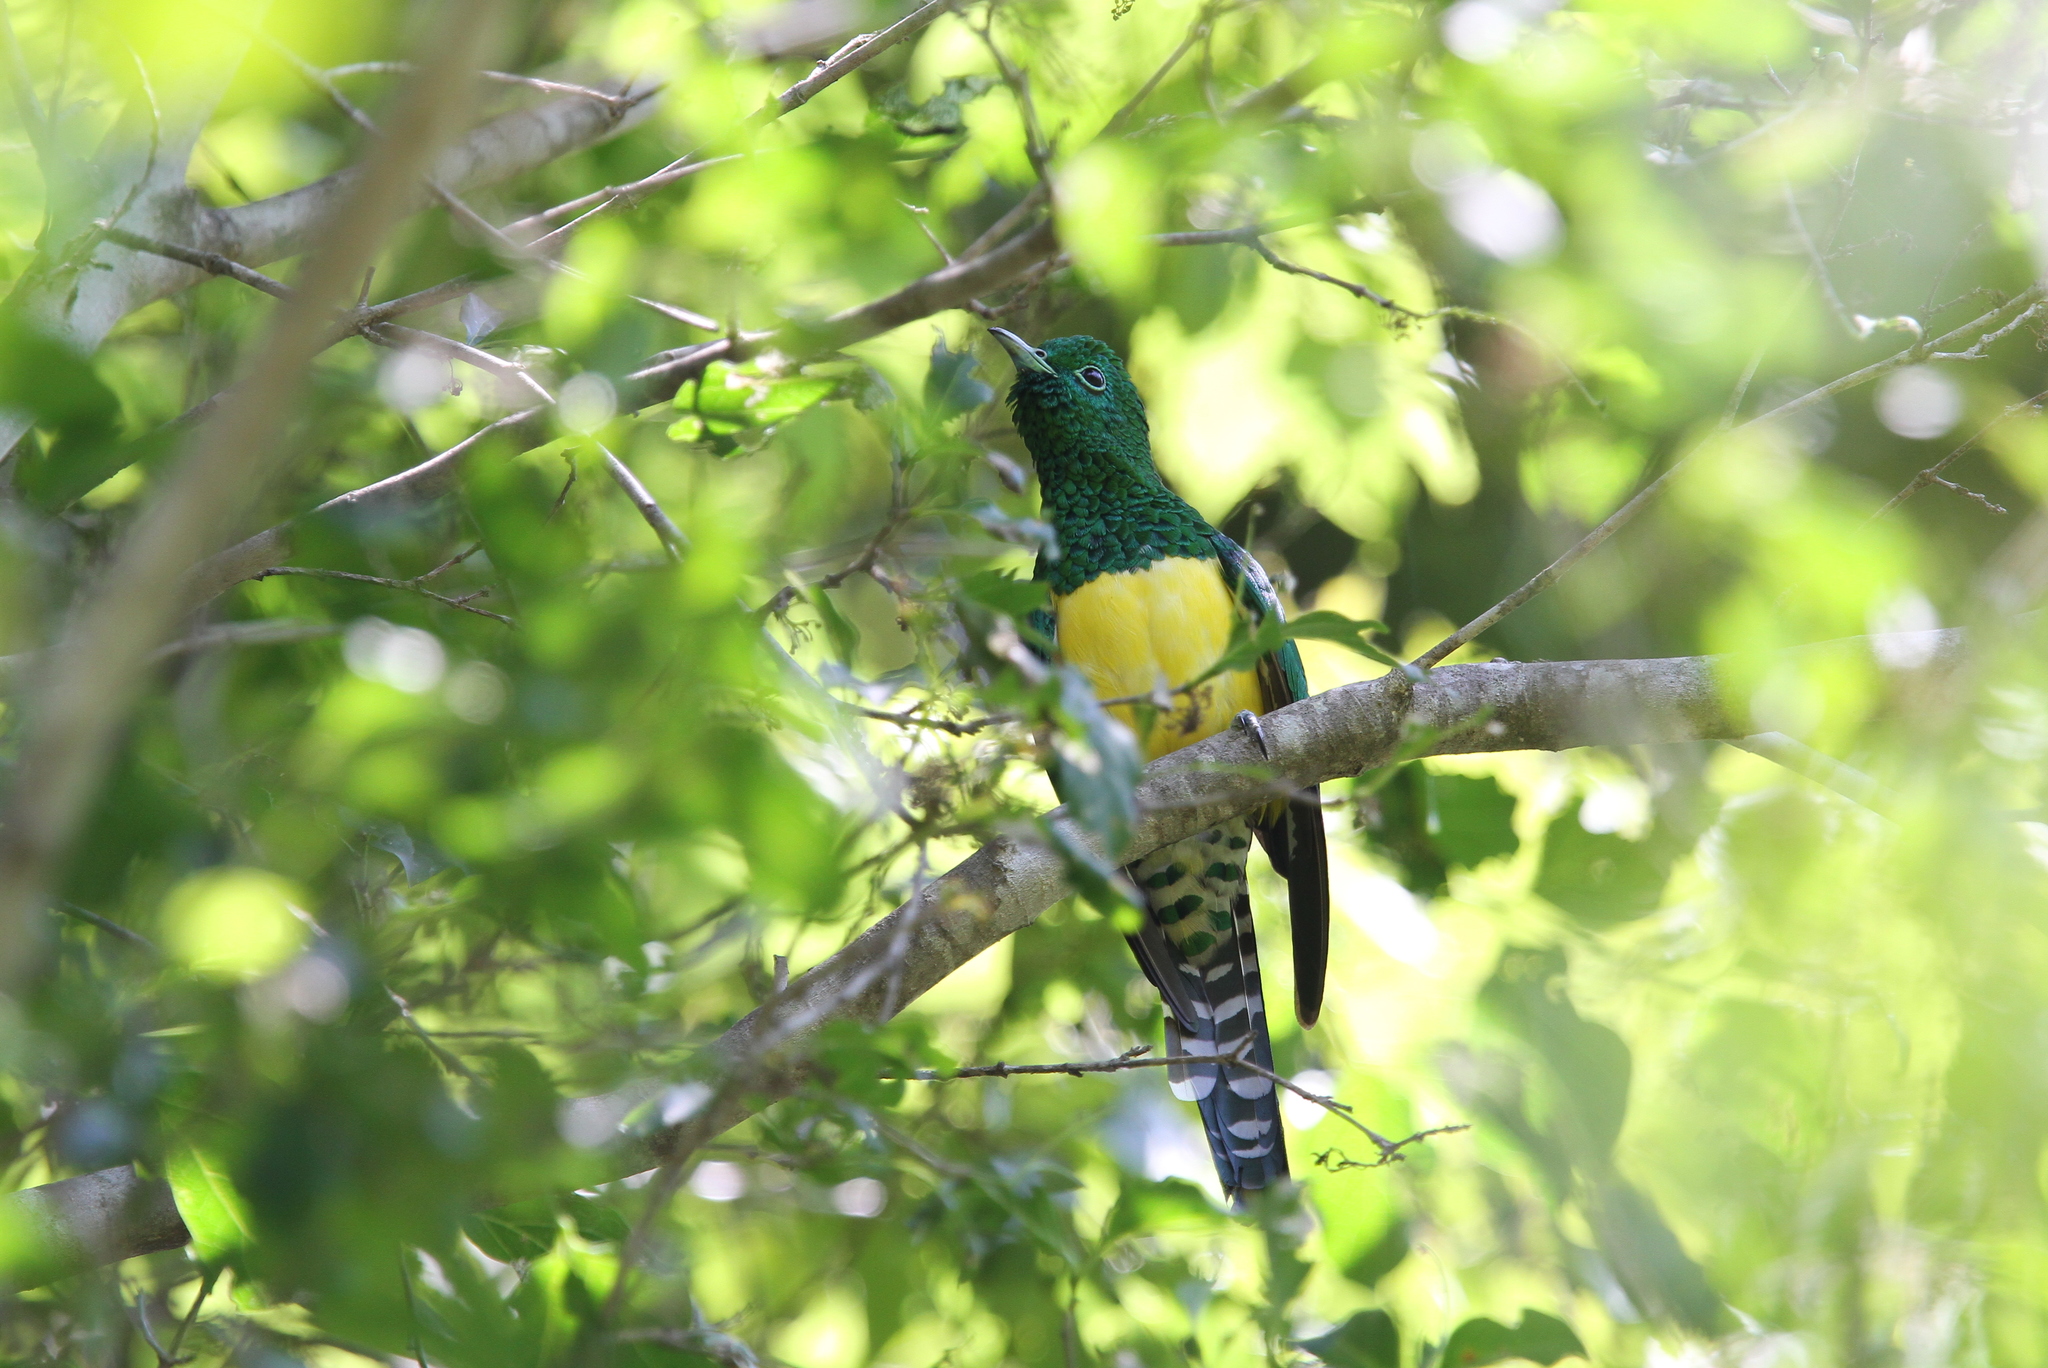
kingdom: Animalia
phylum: Chordata
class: Aves
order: Cuculiformes
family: Cuculidae
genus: Chrysococcyx
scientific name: Chrysococcyx cupreus
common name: African emerald cuckoo
